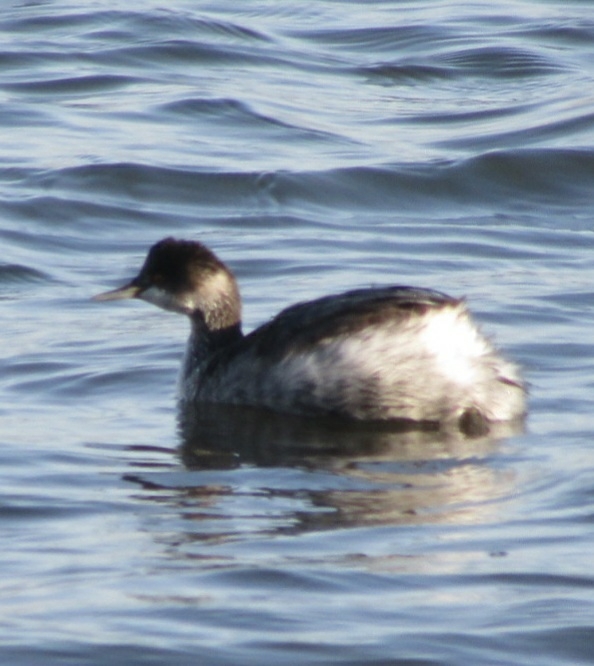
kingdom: Animalia
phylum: Chordata
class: Aves
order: Podicipediformes
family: Podicipedidae
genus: Podiceps
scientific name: Podiceps nigricollis
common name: Black-necked grebe
